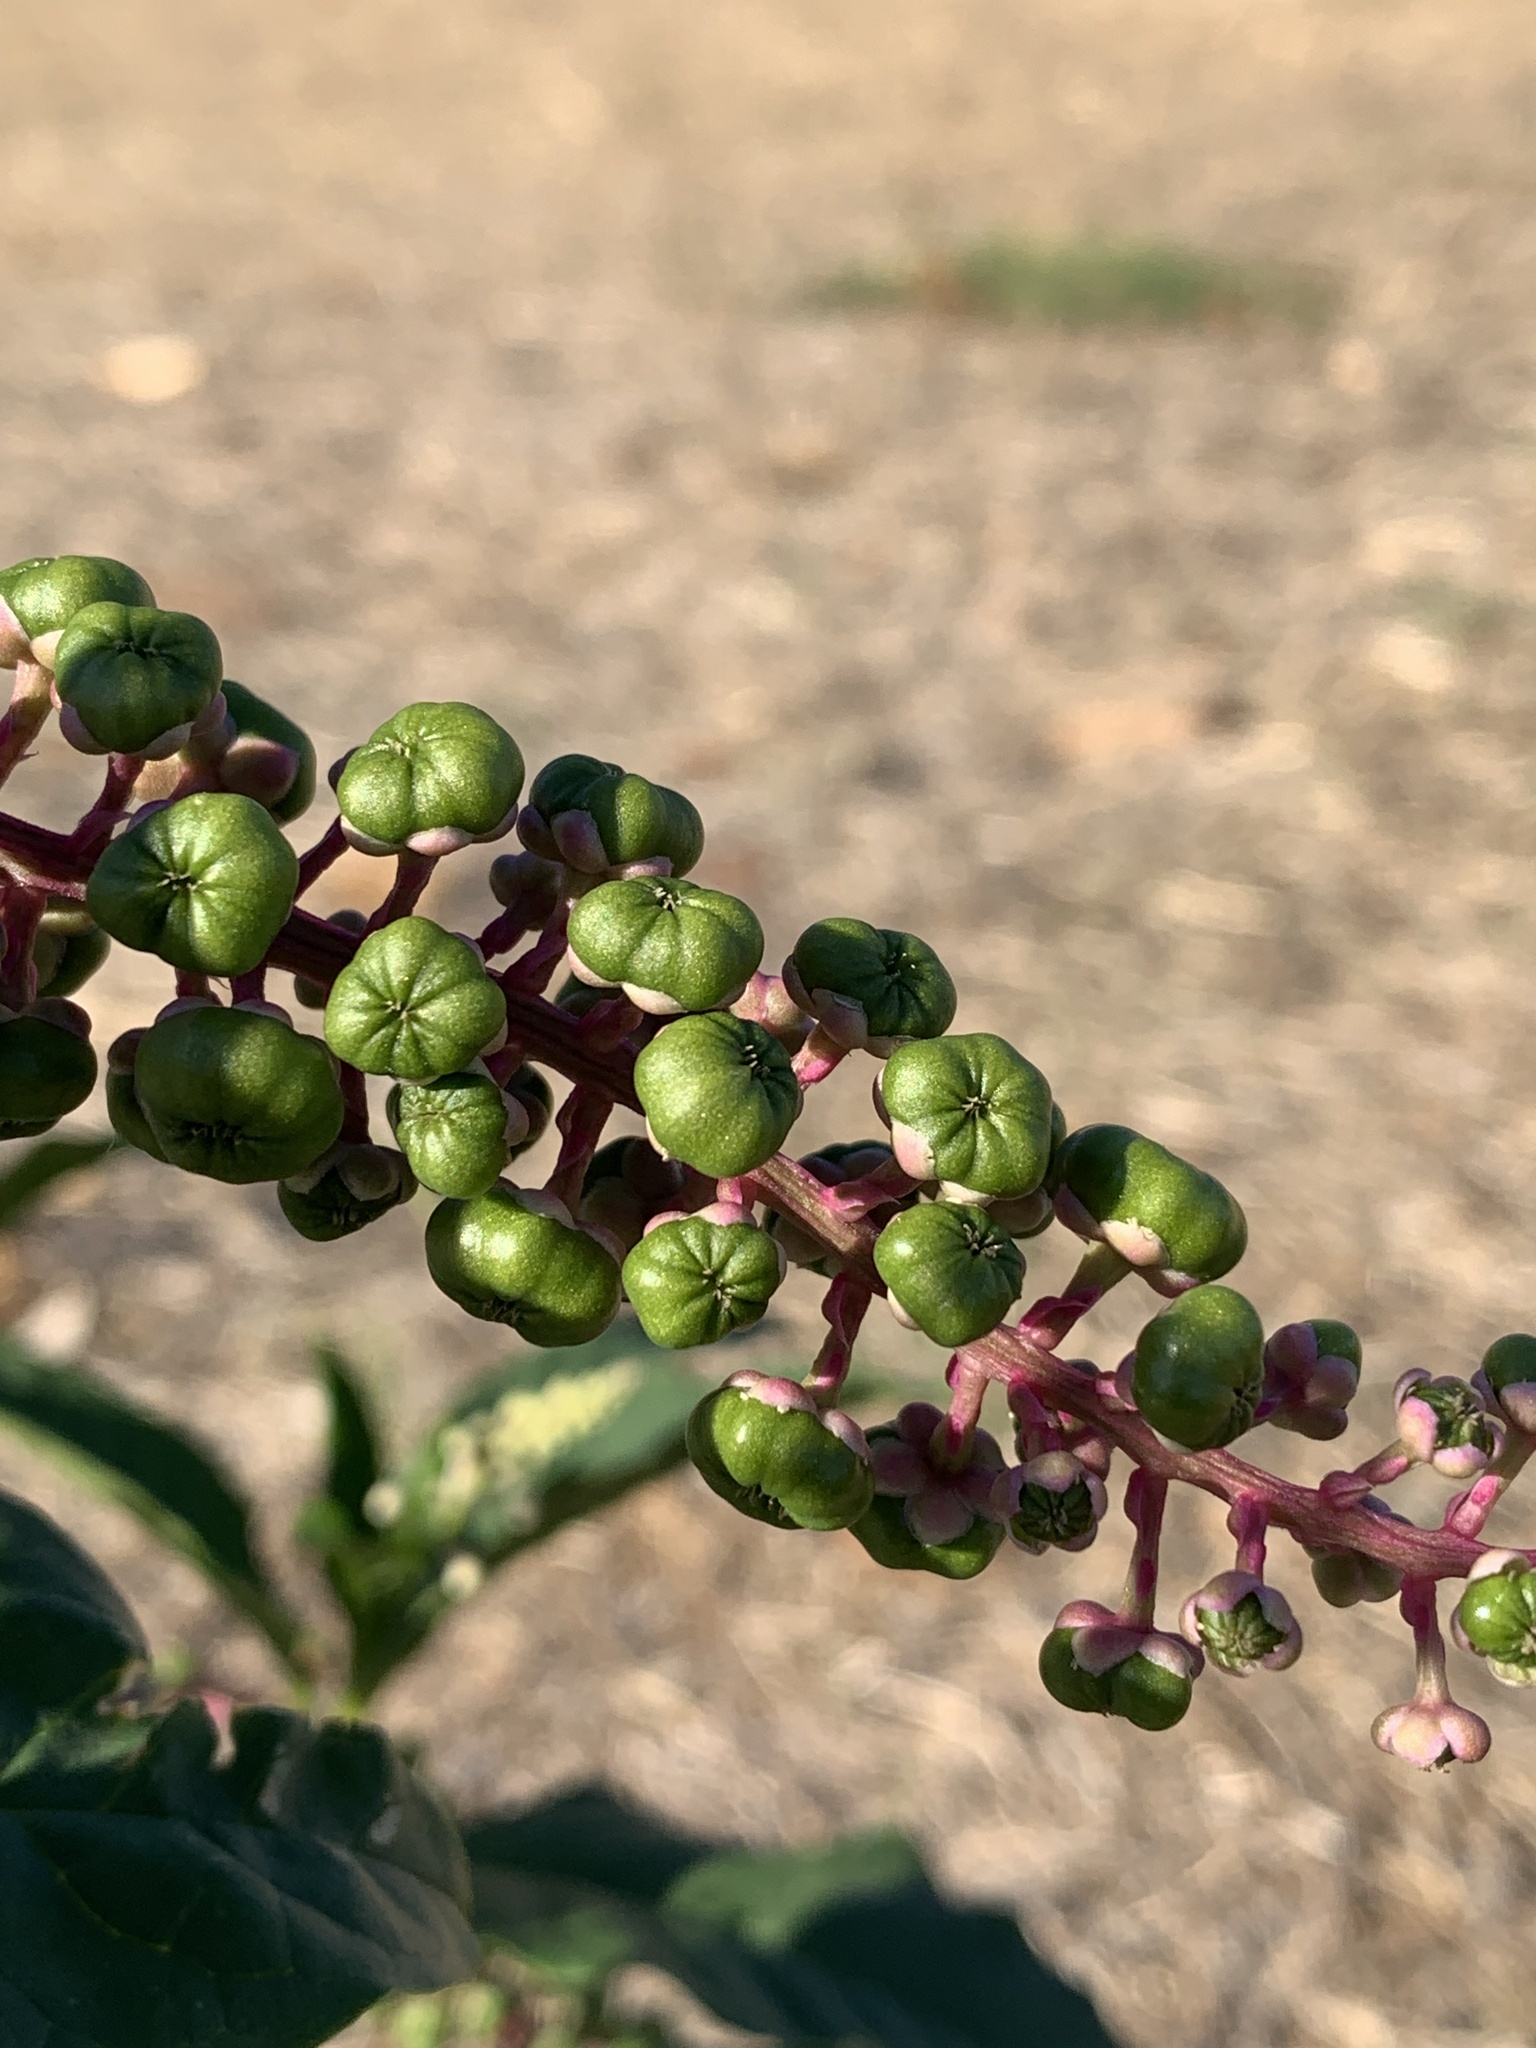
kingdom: Plantae
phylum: Tracheophyta
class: Magnoliopsida
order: Caryophyllales
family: Phytolaccaceae
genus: Phytolacca
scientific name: Phytolacca americana
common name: American pokeweed
